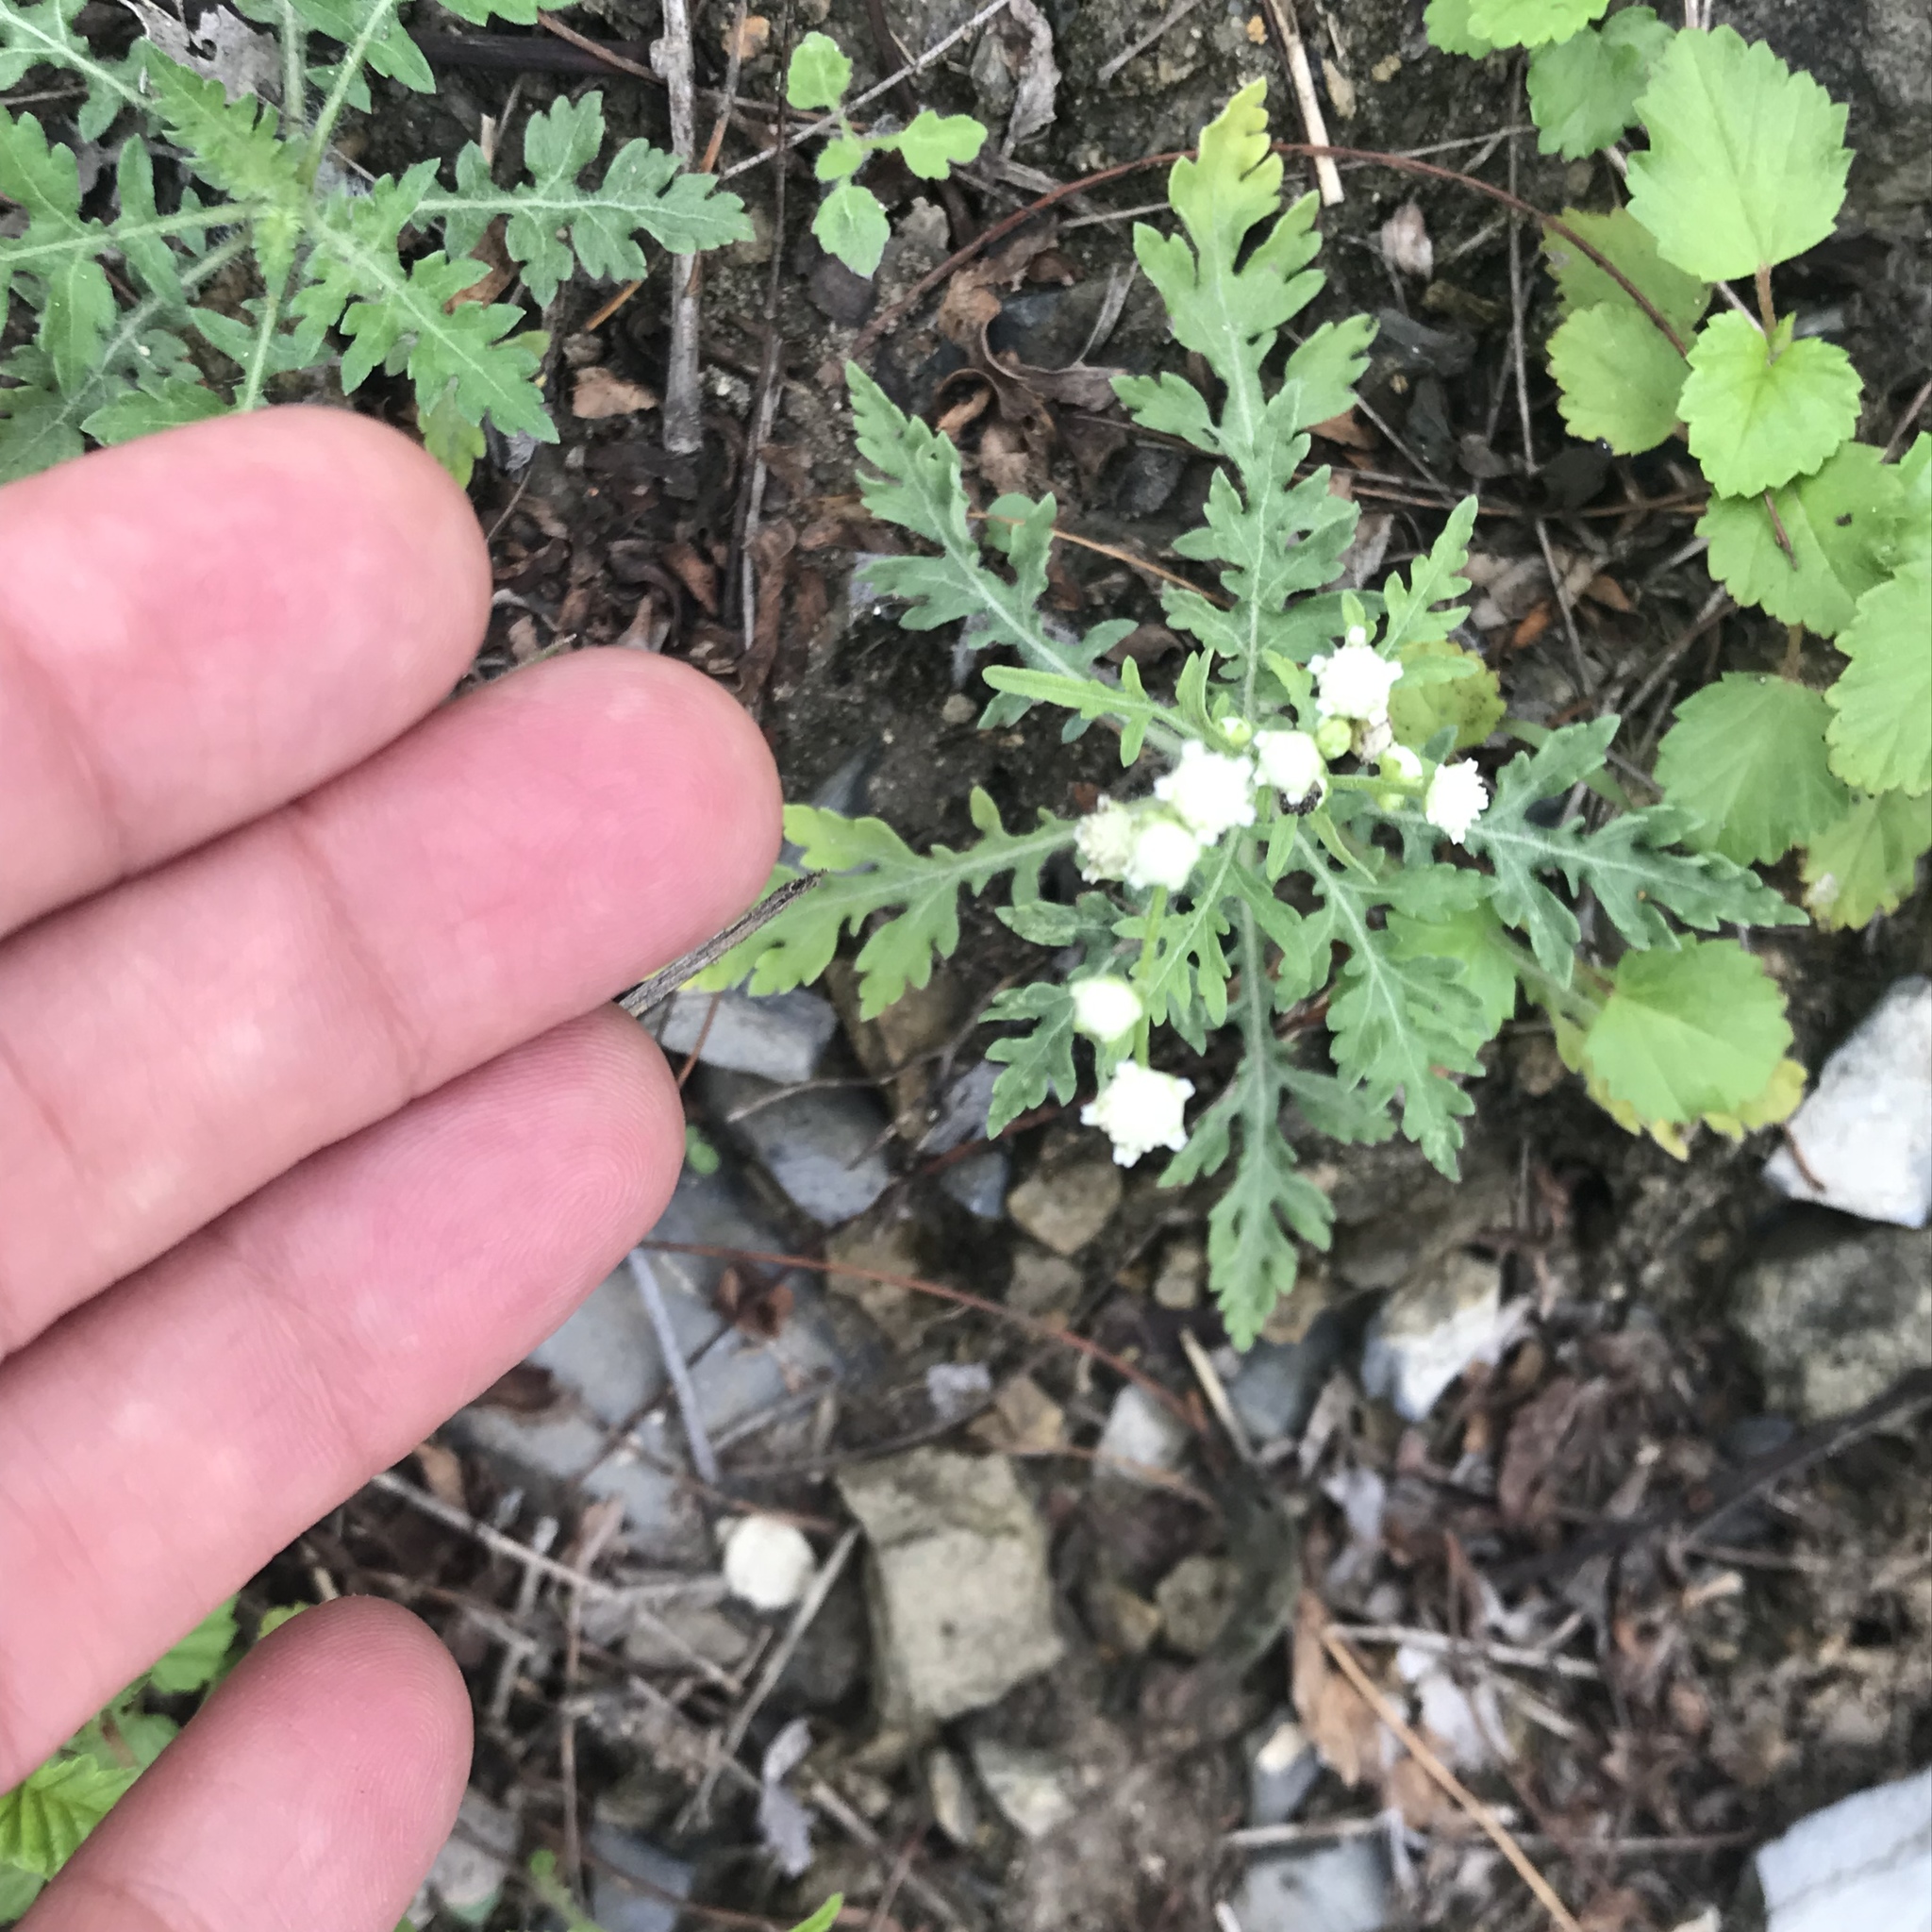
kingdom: Plantae
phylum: Tracheophyta
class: Magnoliopsida
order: Asterales
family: Asteraceae
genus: Parthenium
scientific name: Parthenium hysterophorus
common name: Santa maria feverfew
